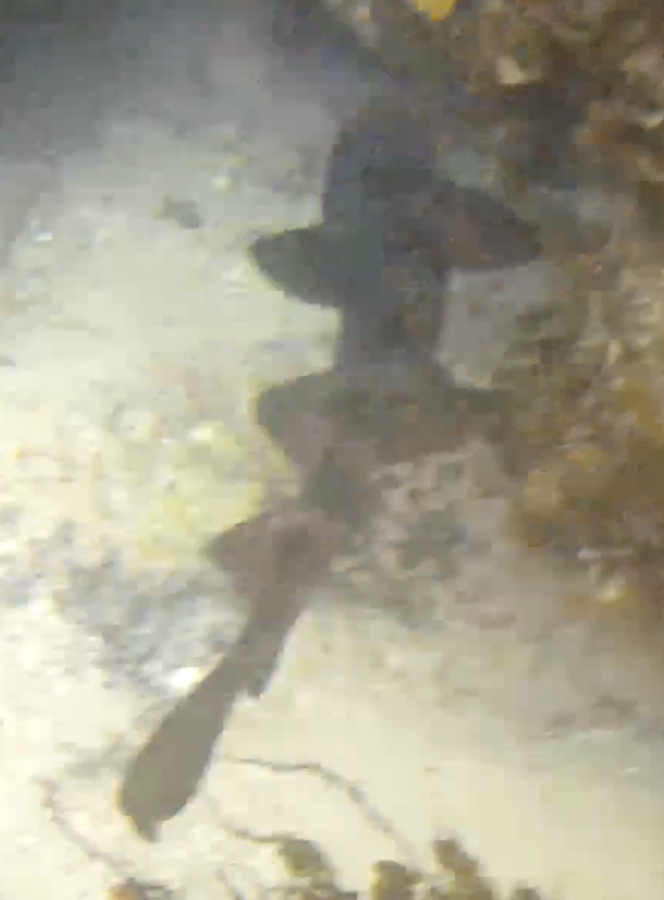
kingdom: Animalia
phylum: Chordata
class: Elasmobranchii
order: Orectolobiformes
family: Brachaeluridae
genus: Brachaelurus
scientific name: Brachaelurus waddi
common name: Blind shark
